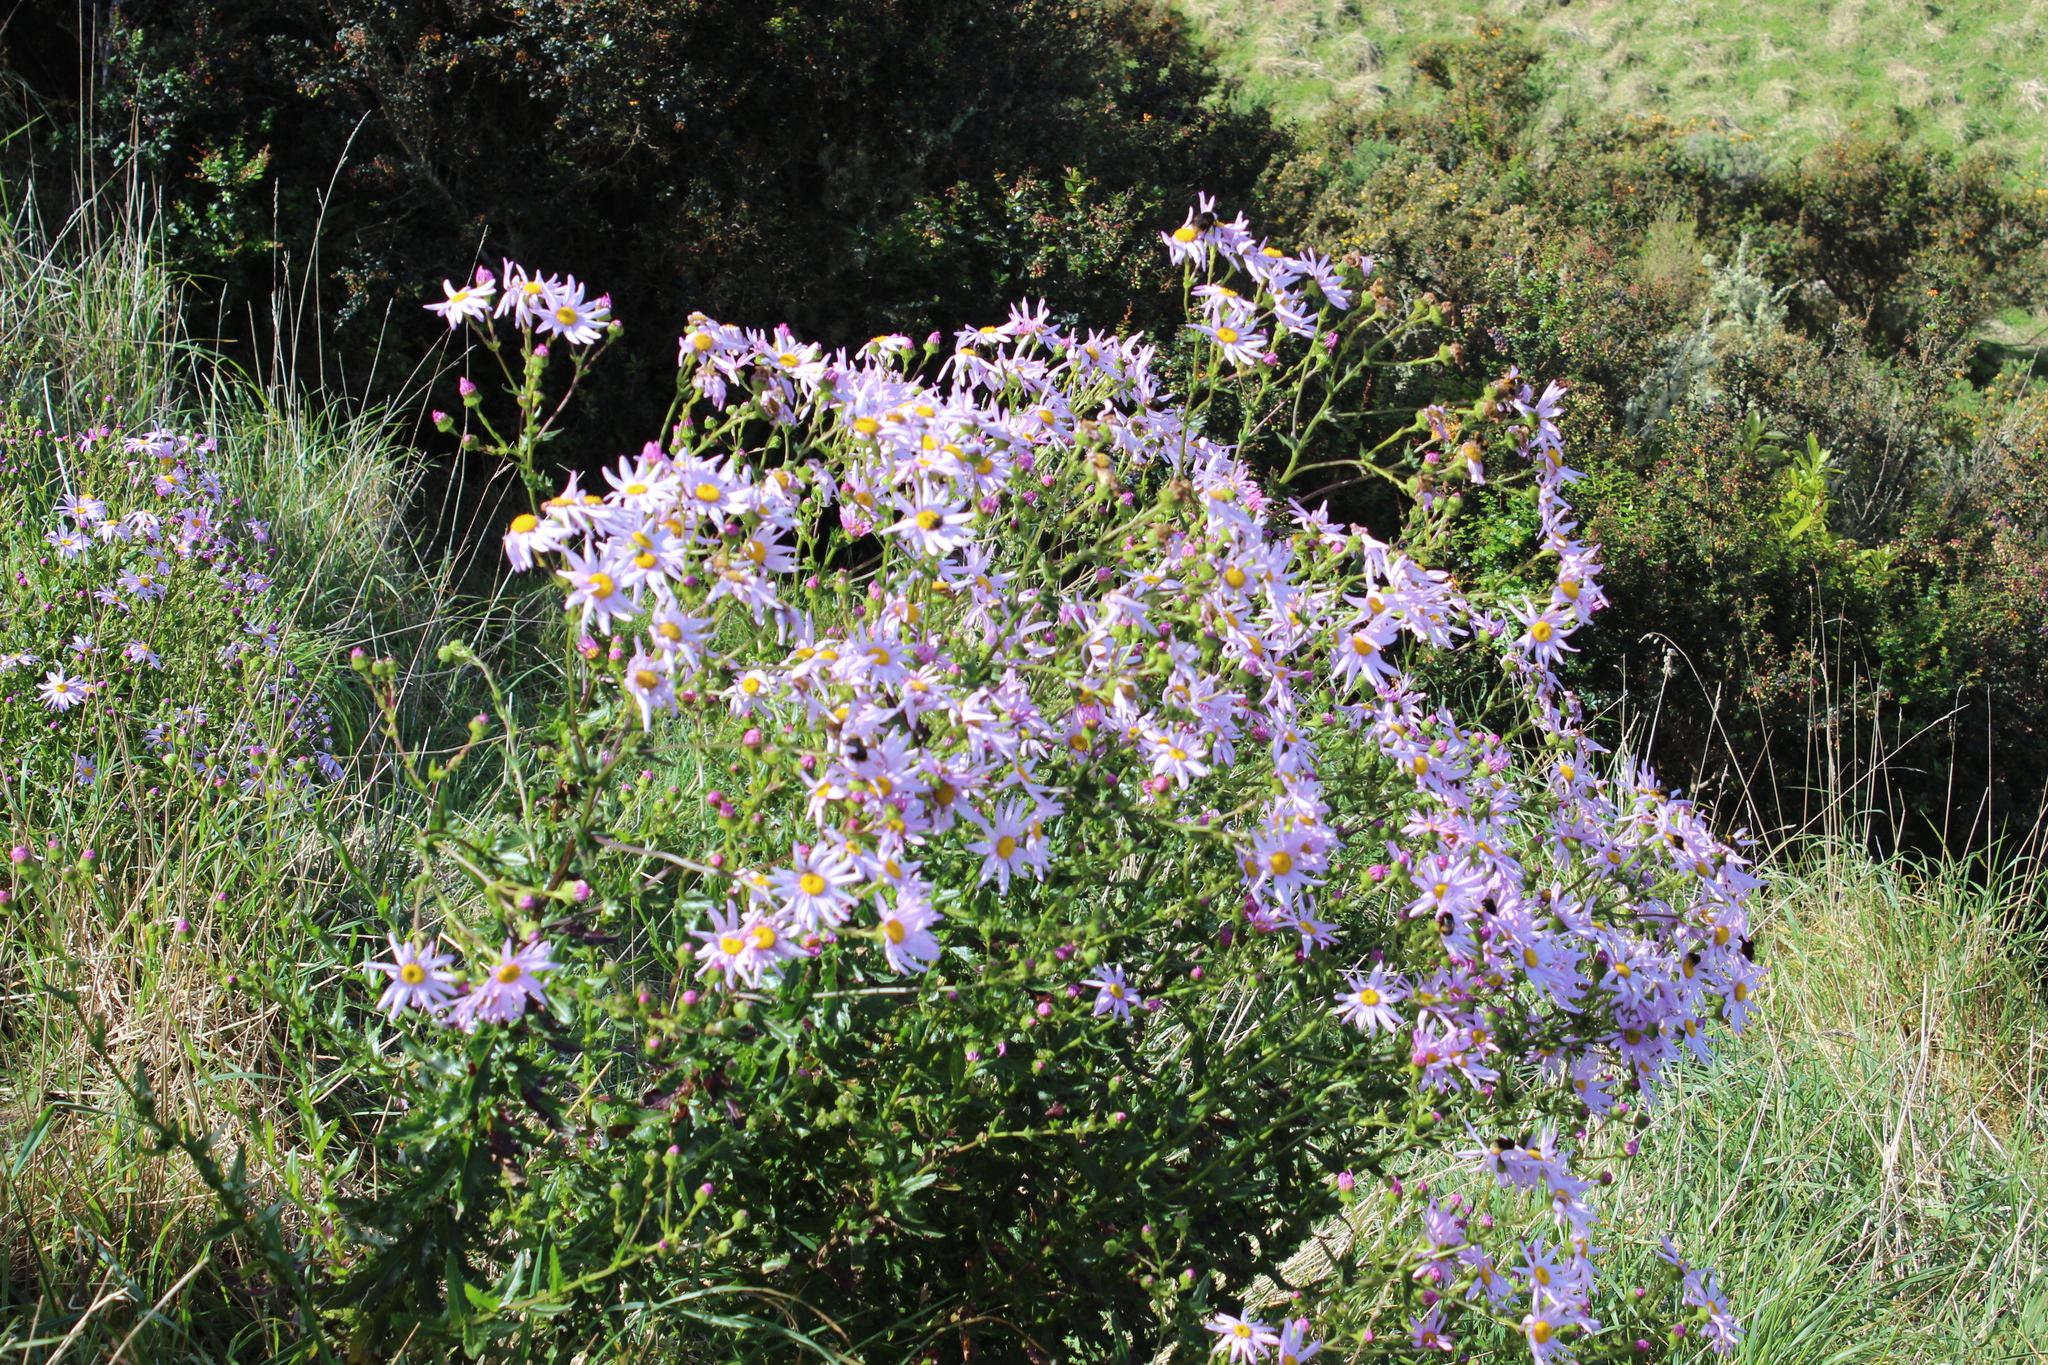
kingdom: Plantae
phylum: Tracheophyta
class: Magnoliopsida
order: Asterales
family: Asteraceae
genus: Senecio
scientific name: Senecio glastifolius
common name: Woad-leaved ragwort
